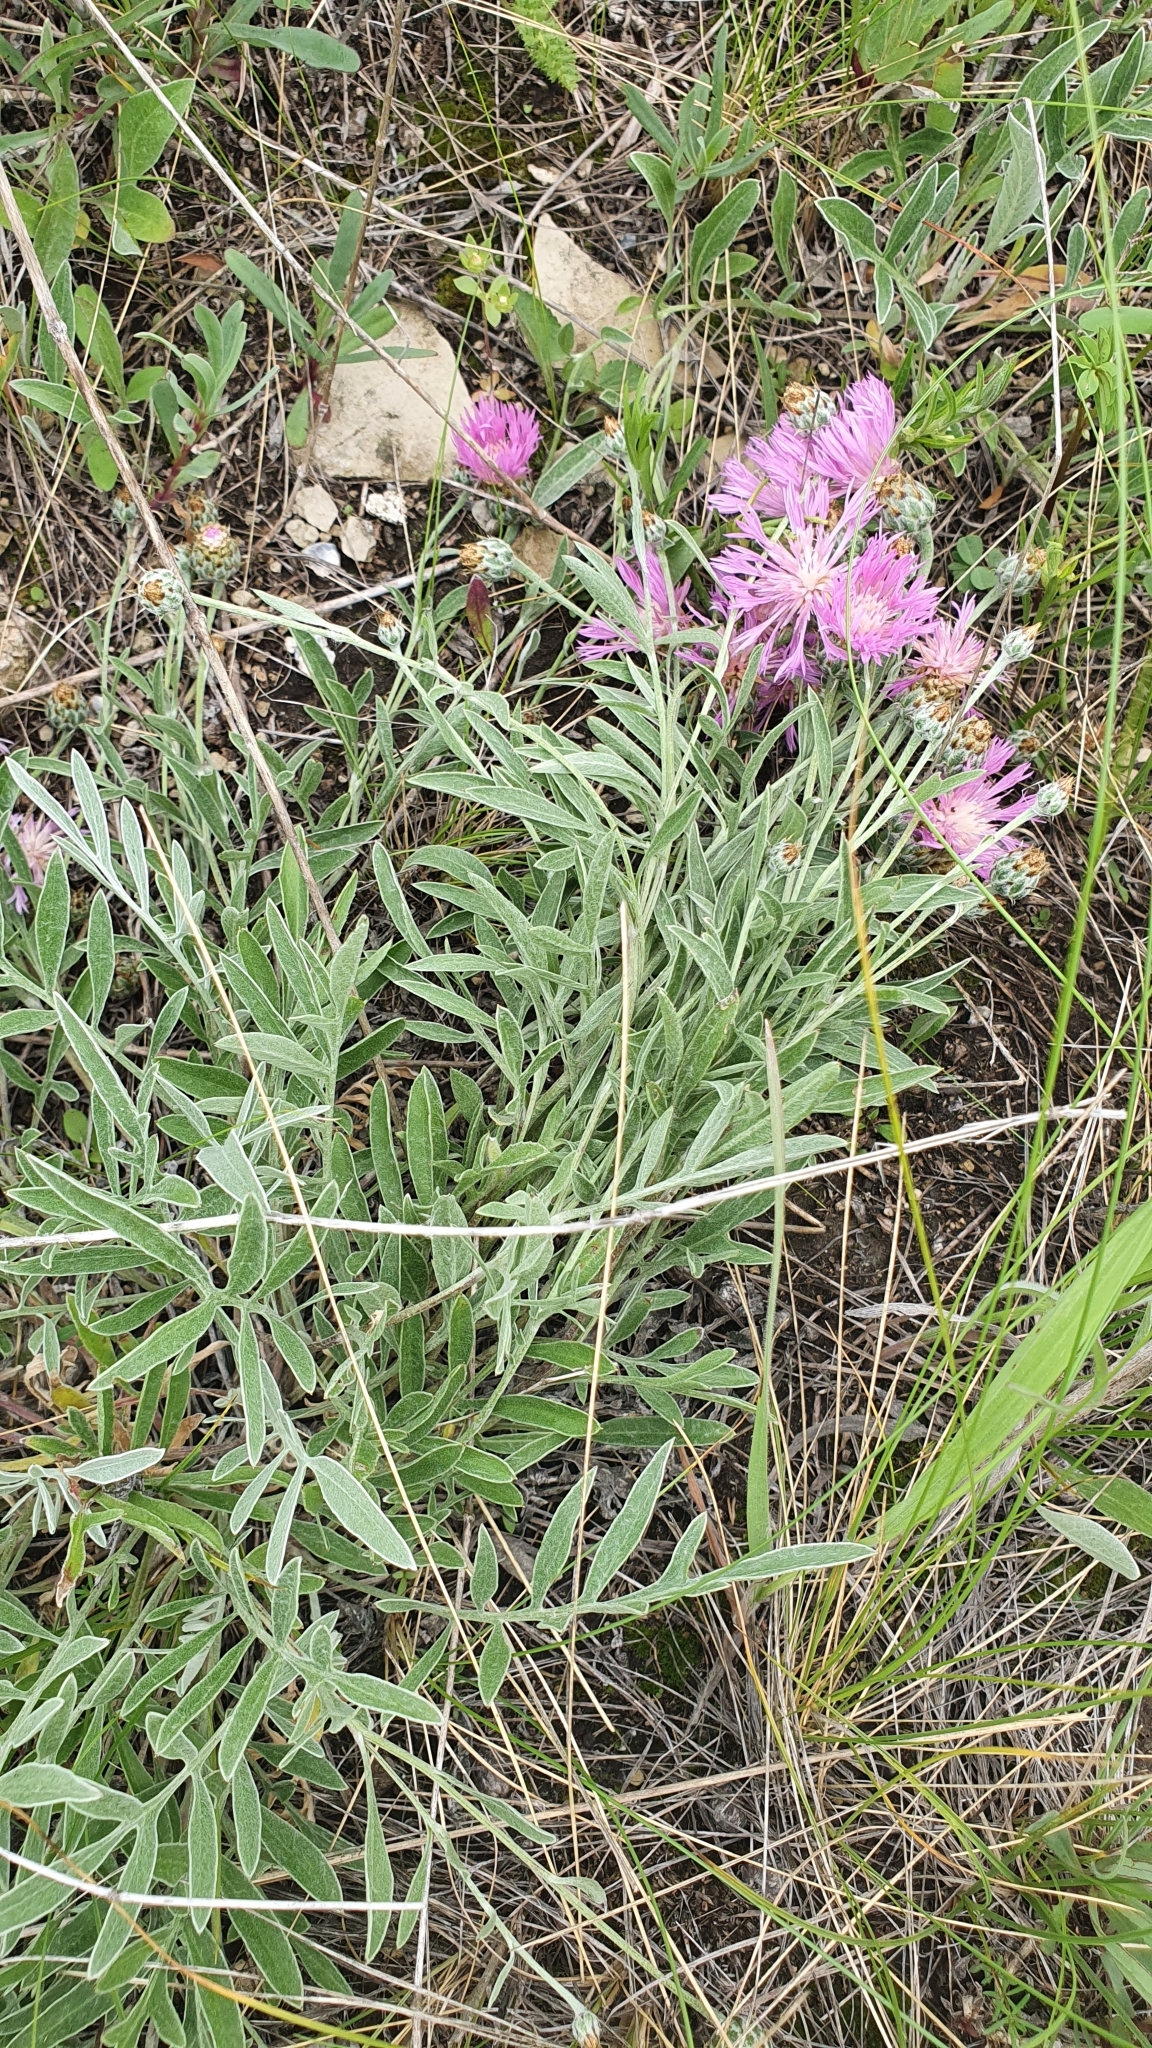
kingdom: Plantae
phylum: Tracheophyta
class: Magnoliopsida
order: Asterales
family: Asteraceae
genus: Psephellus
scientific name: Psephellus sumensis
